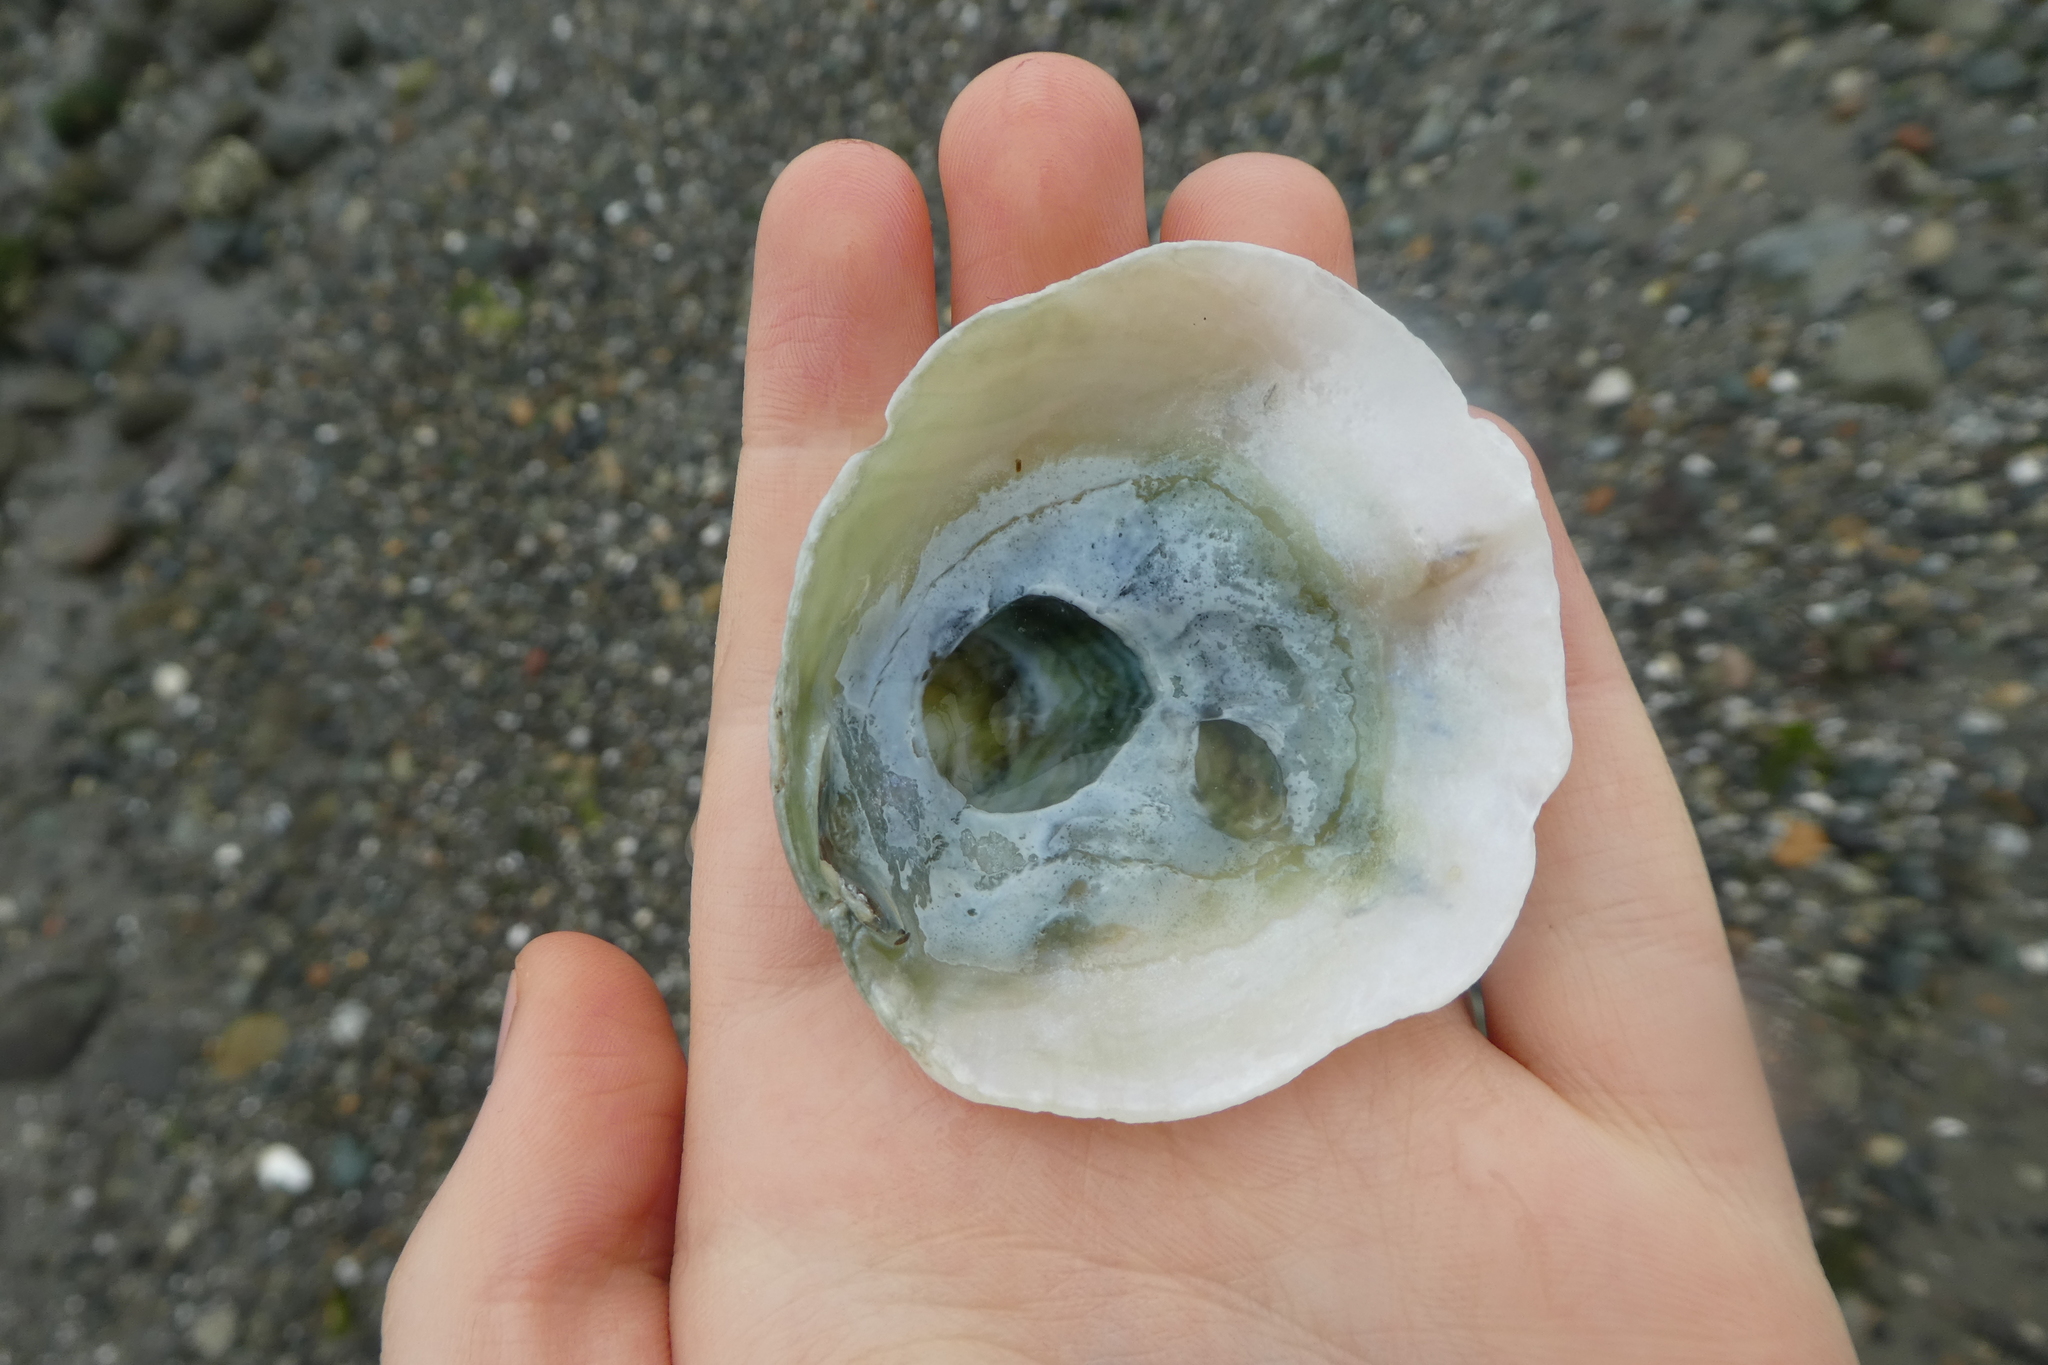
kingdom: Animalia
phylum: Mollusca
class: Bivalvia
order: Pectinida
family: Anomiidae
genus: Pododesmus
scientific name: Pododesmus macrochisma
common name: Alaska jingle
